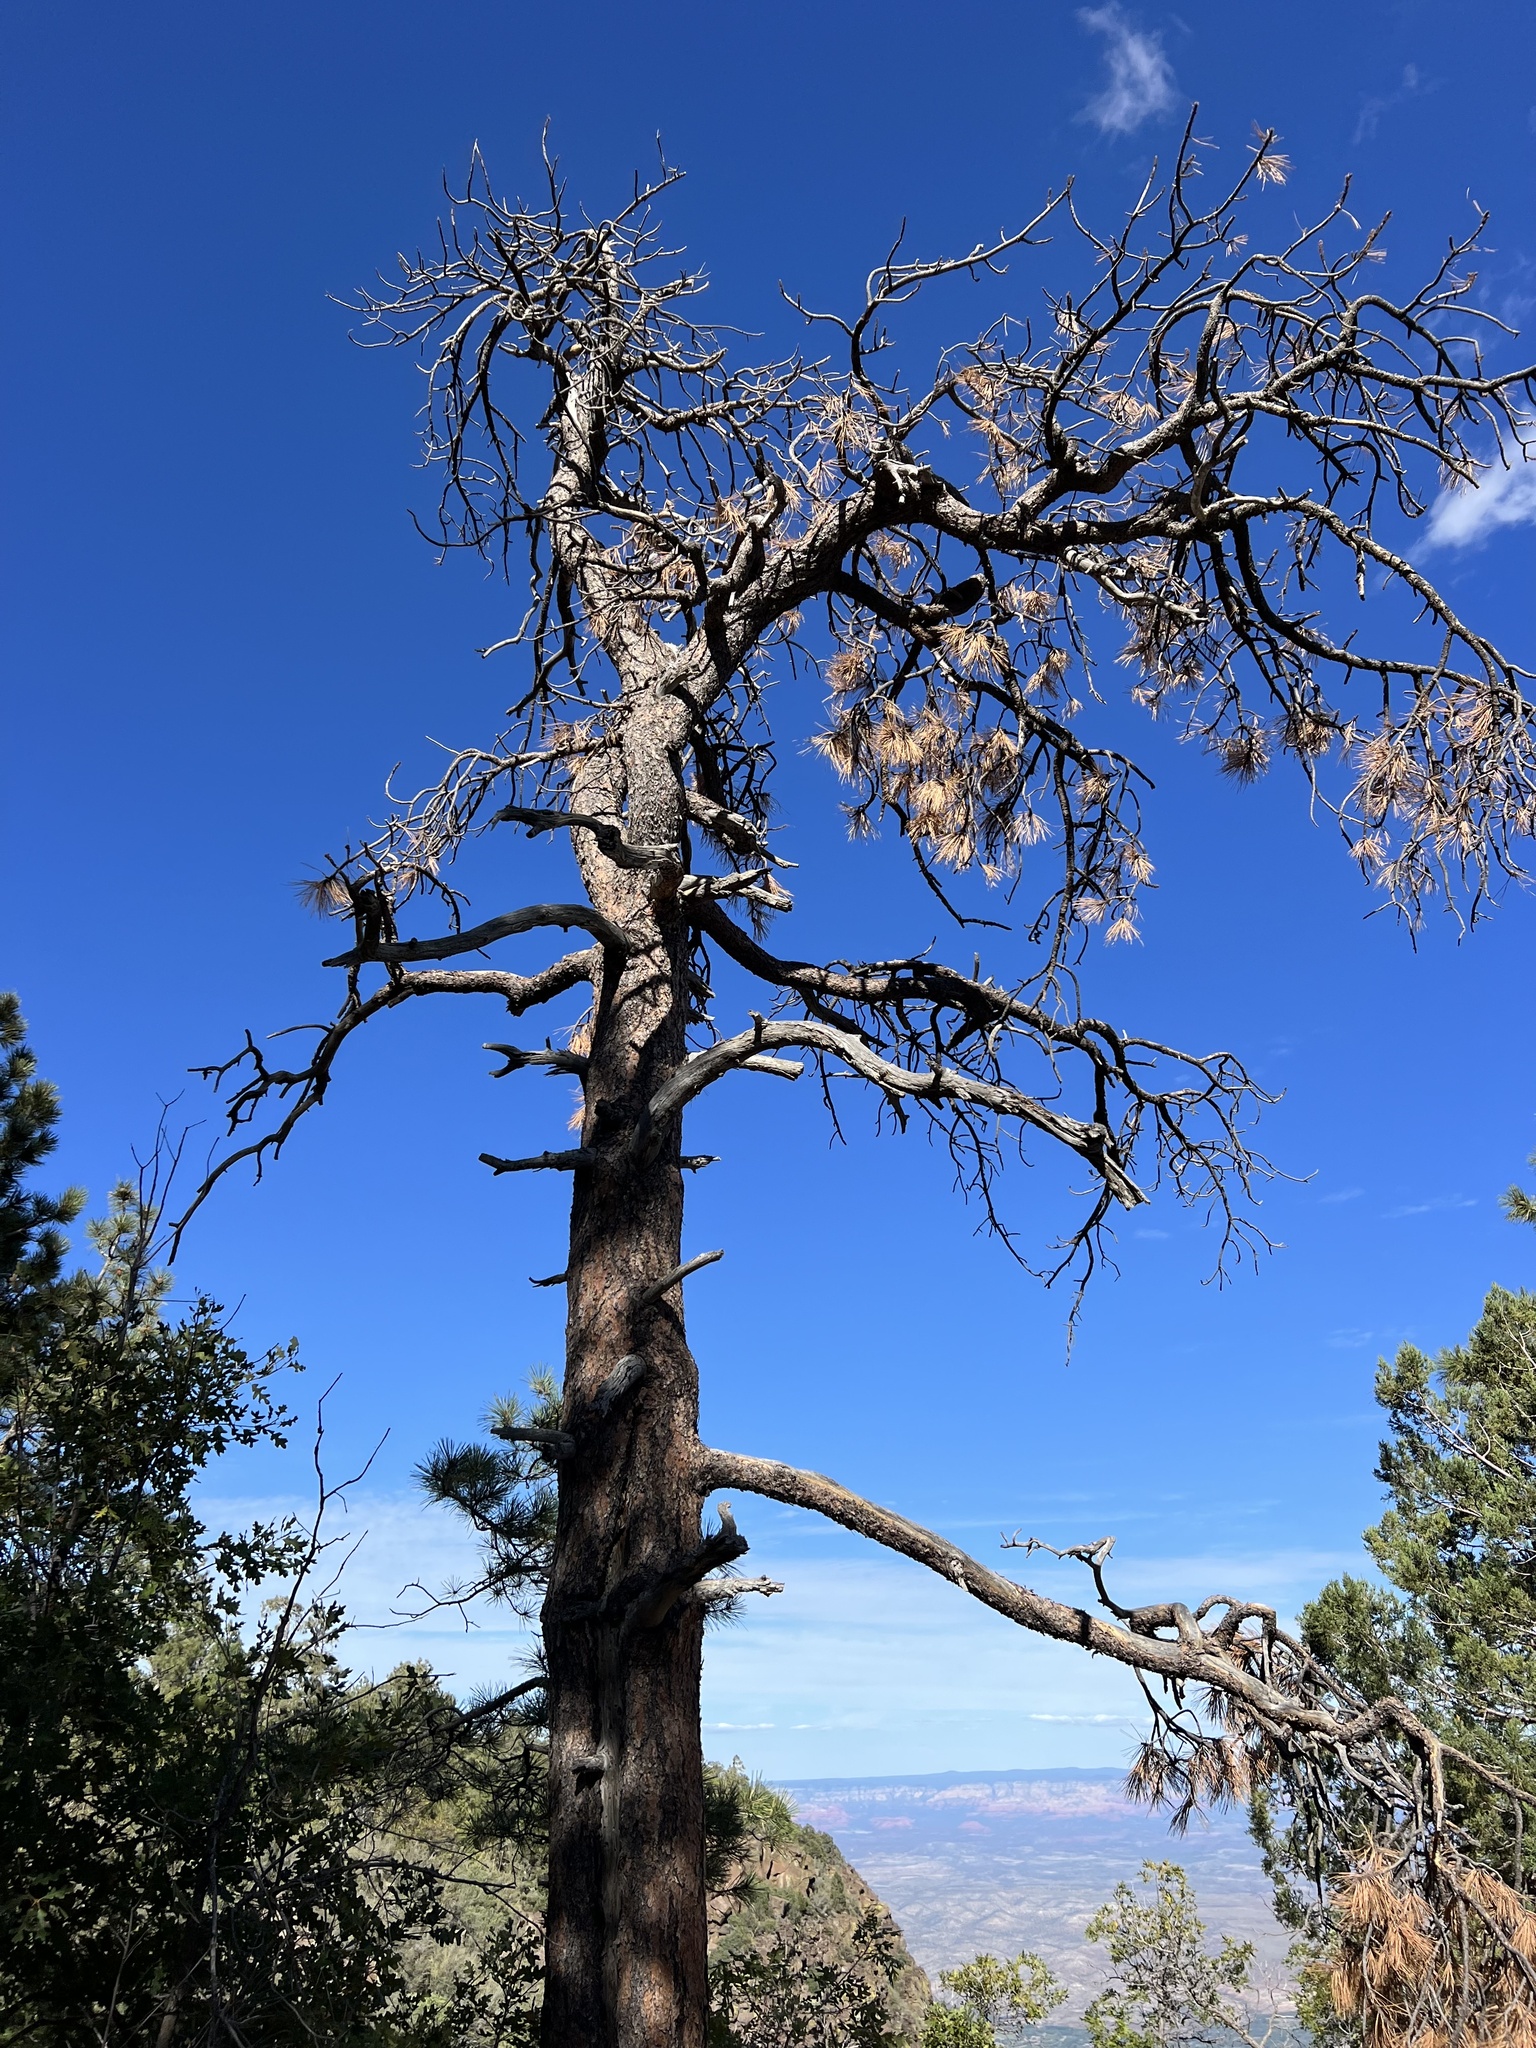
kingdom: Plantae
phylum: Tracheophyta
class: Pinopsida
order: Pinales
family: Pinaceae
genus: Pinus
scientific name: Pinus ponderosa
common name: Western yellow-pine
